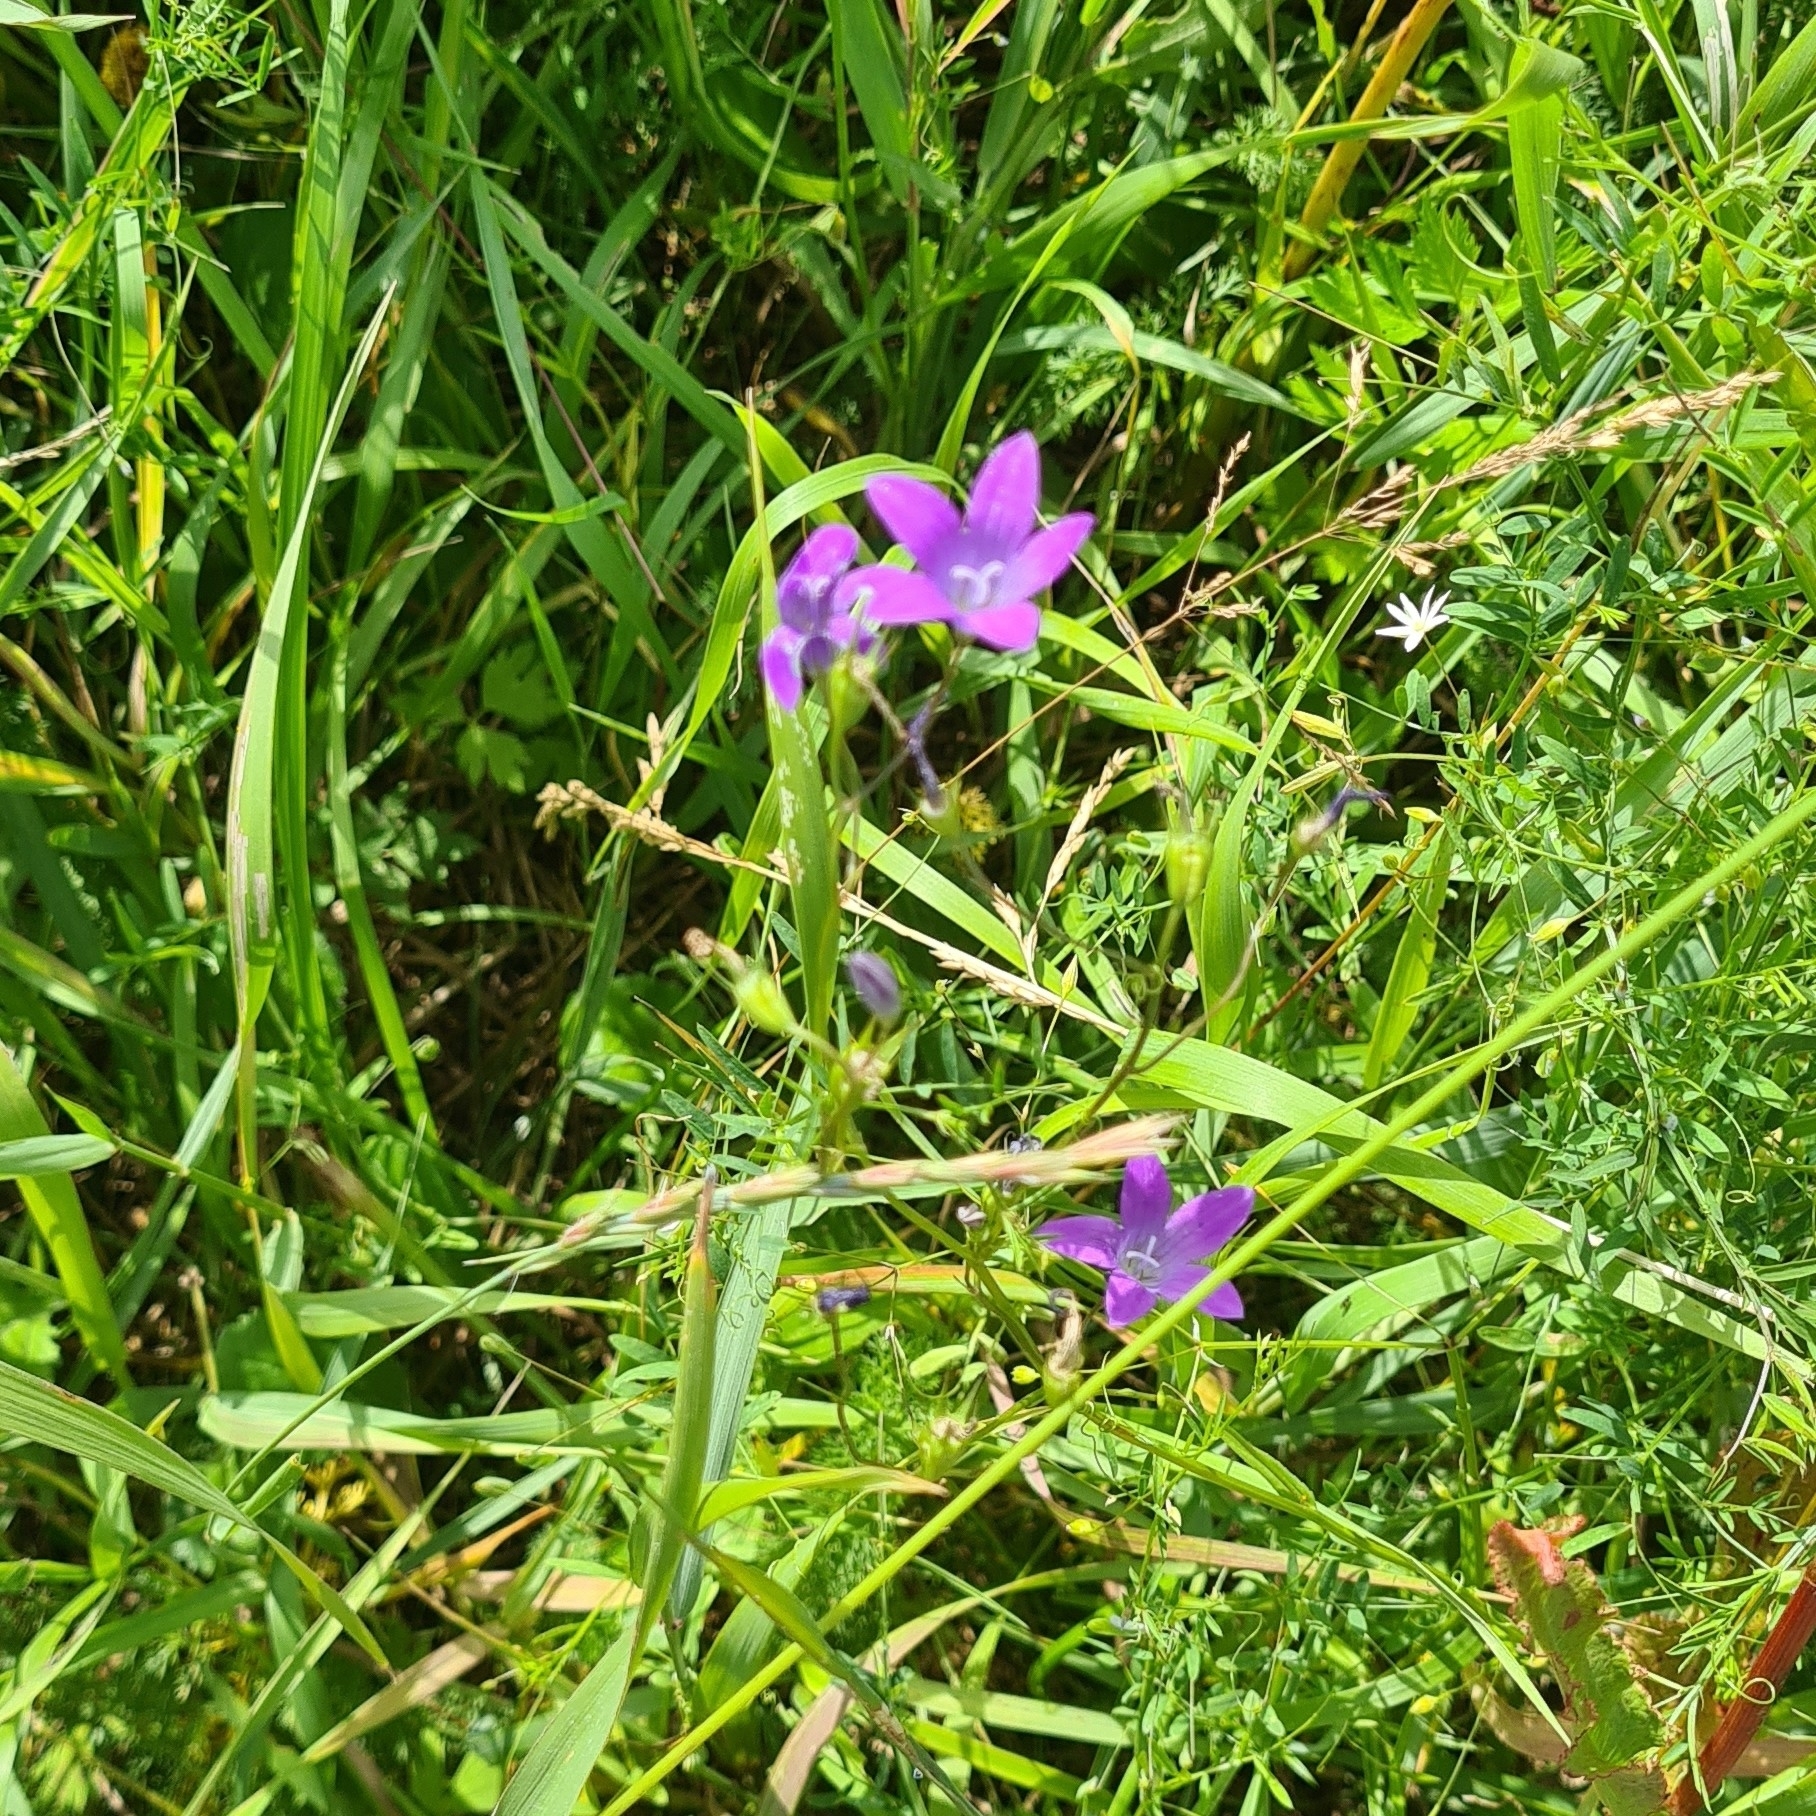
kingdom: Plantae
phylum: Tracheophyta
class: Magnoliopsida
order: Asterales
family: Campanulaceae
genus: Campanula
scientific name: Campanula patula
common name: Spreading bellflower
